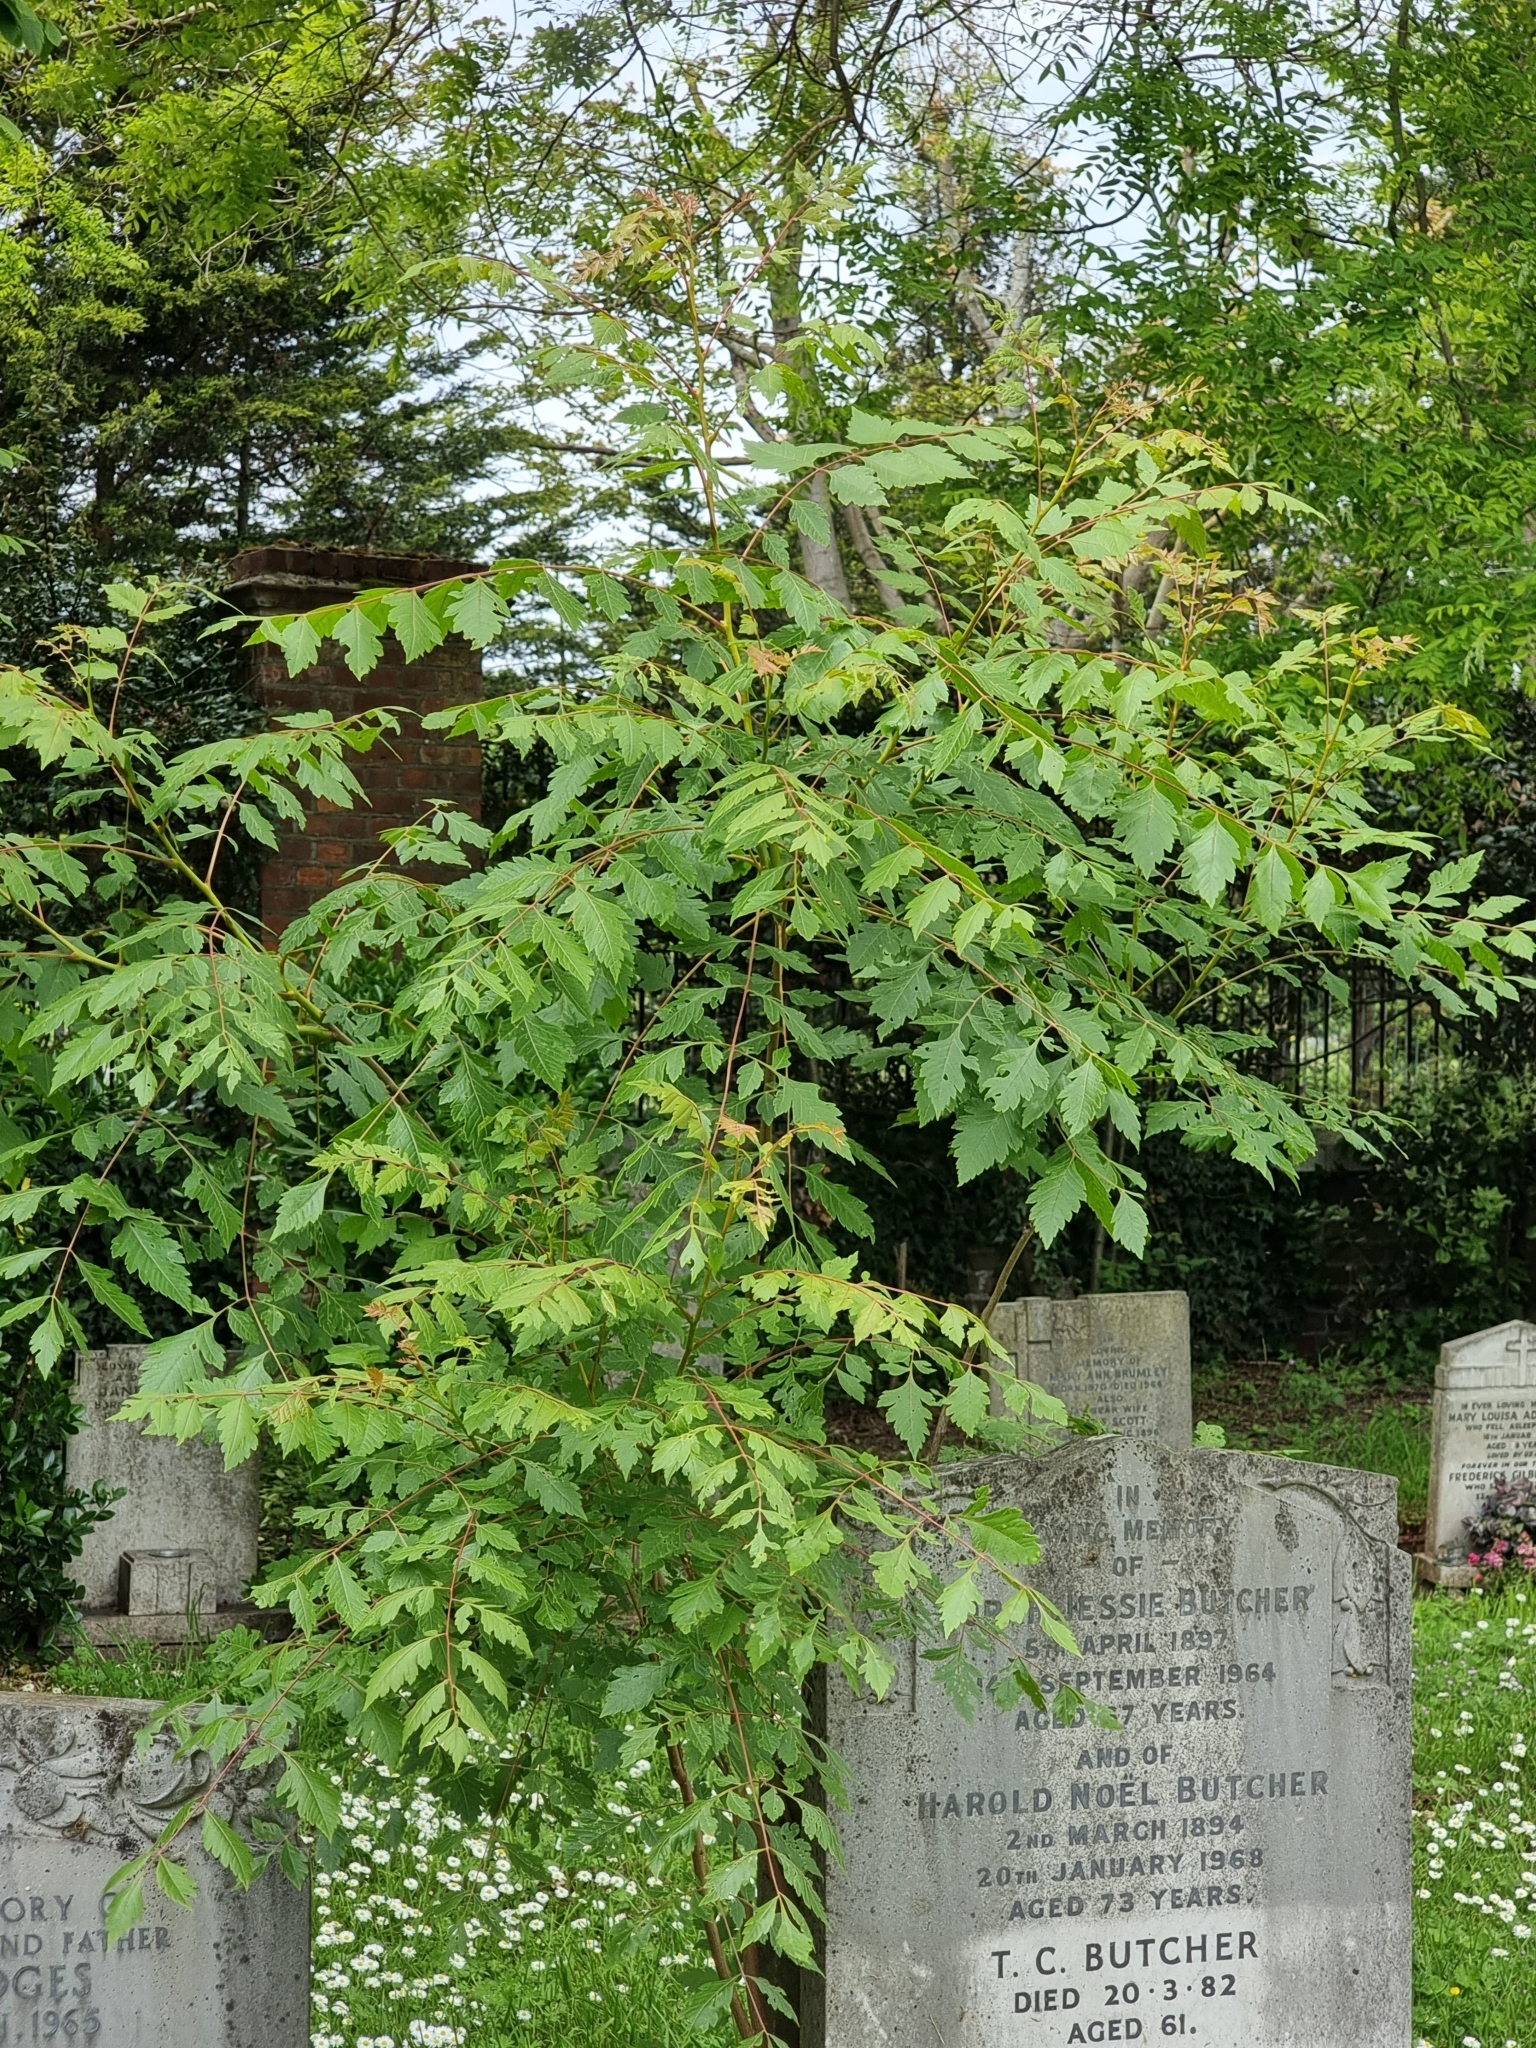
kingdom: Plantae
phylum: Tracheophyta
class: Magnoliopsida
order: Sapindales
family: Sapindaceae
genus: Koelreuteria
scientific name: Koelreuteria paniculata
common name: Pride-of-india
